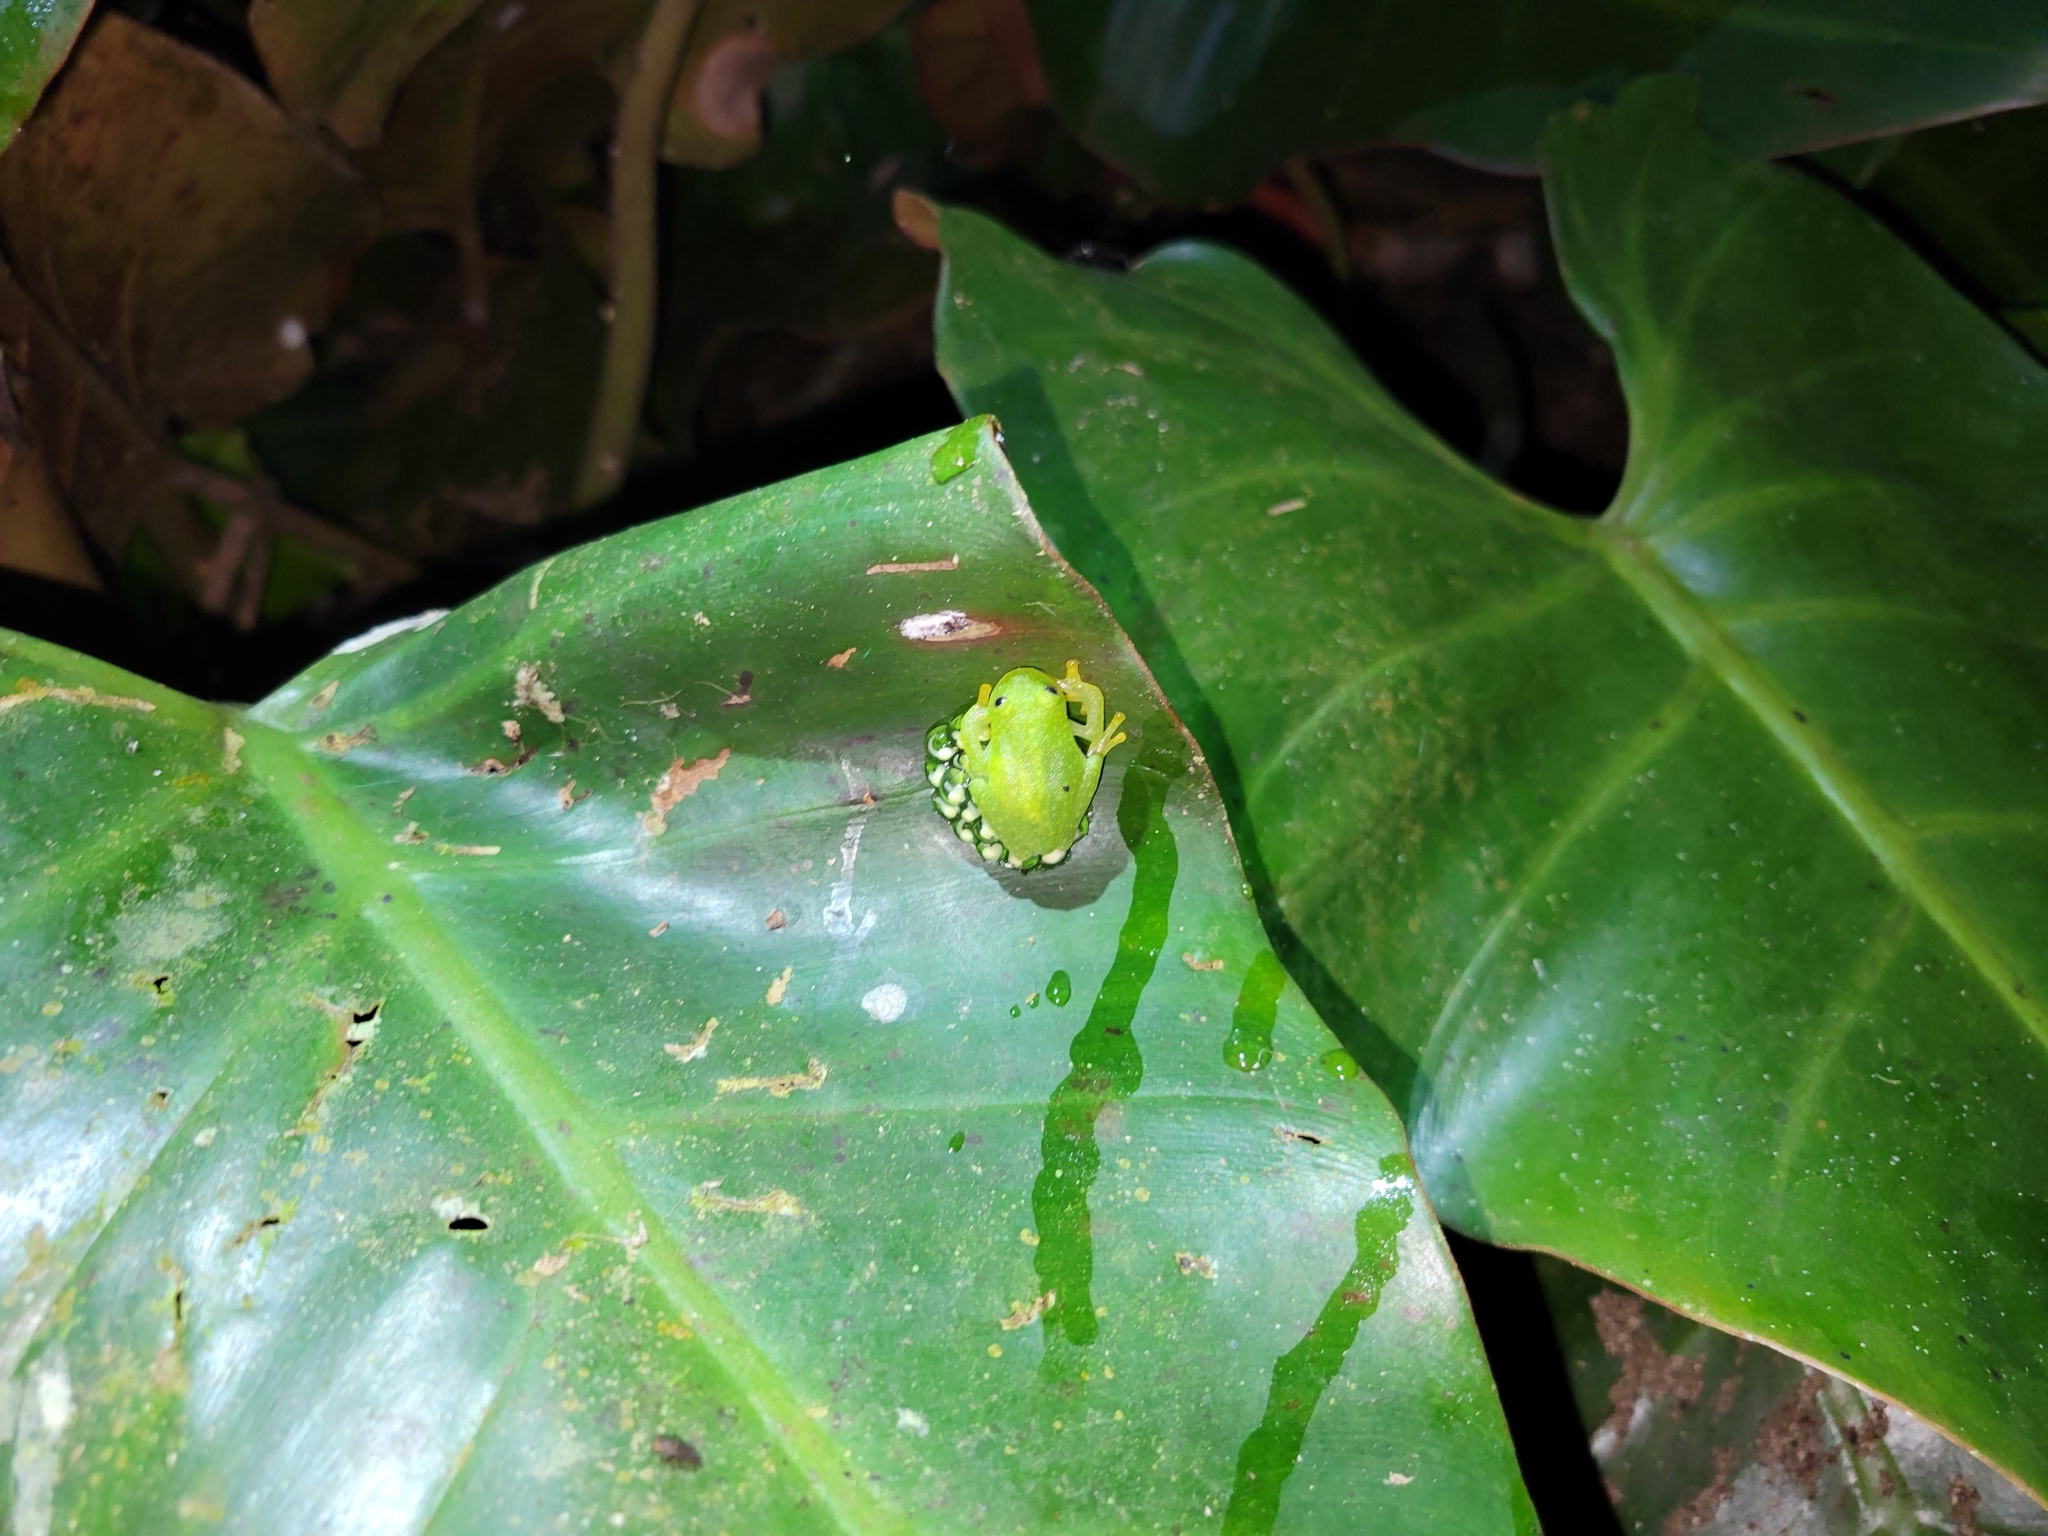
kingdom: Animalia
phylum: Chordata
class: Amphibia
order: Anura
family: Centrolenidae
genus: Hyalinobatrachium
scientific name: Hyalinobatrachium fleischmanni
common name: Rana vientre traslúcido
